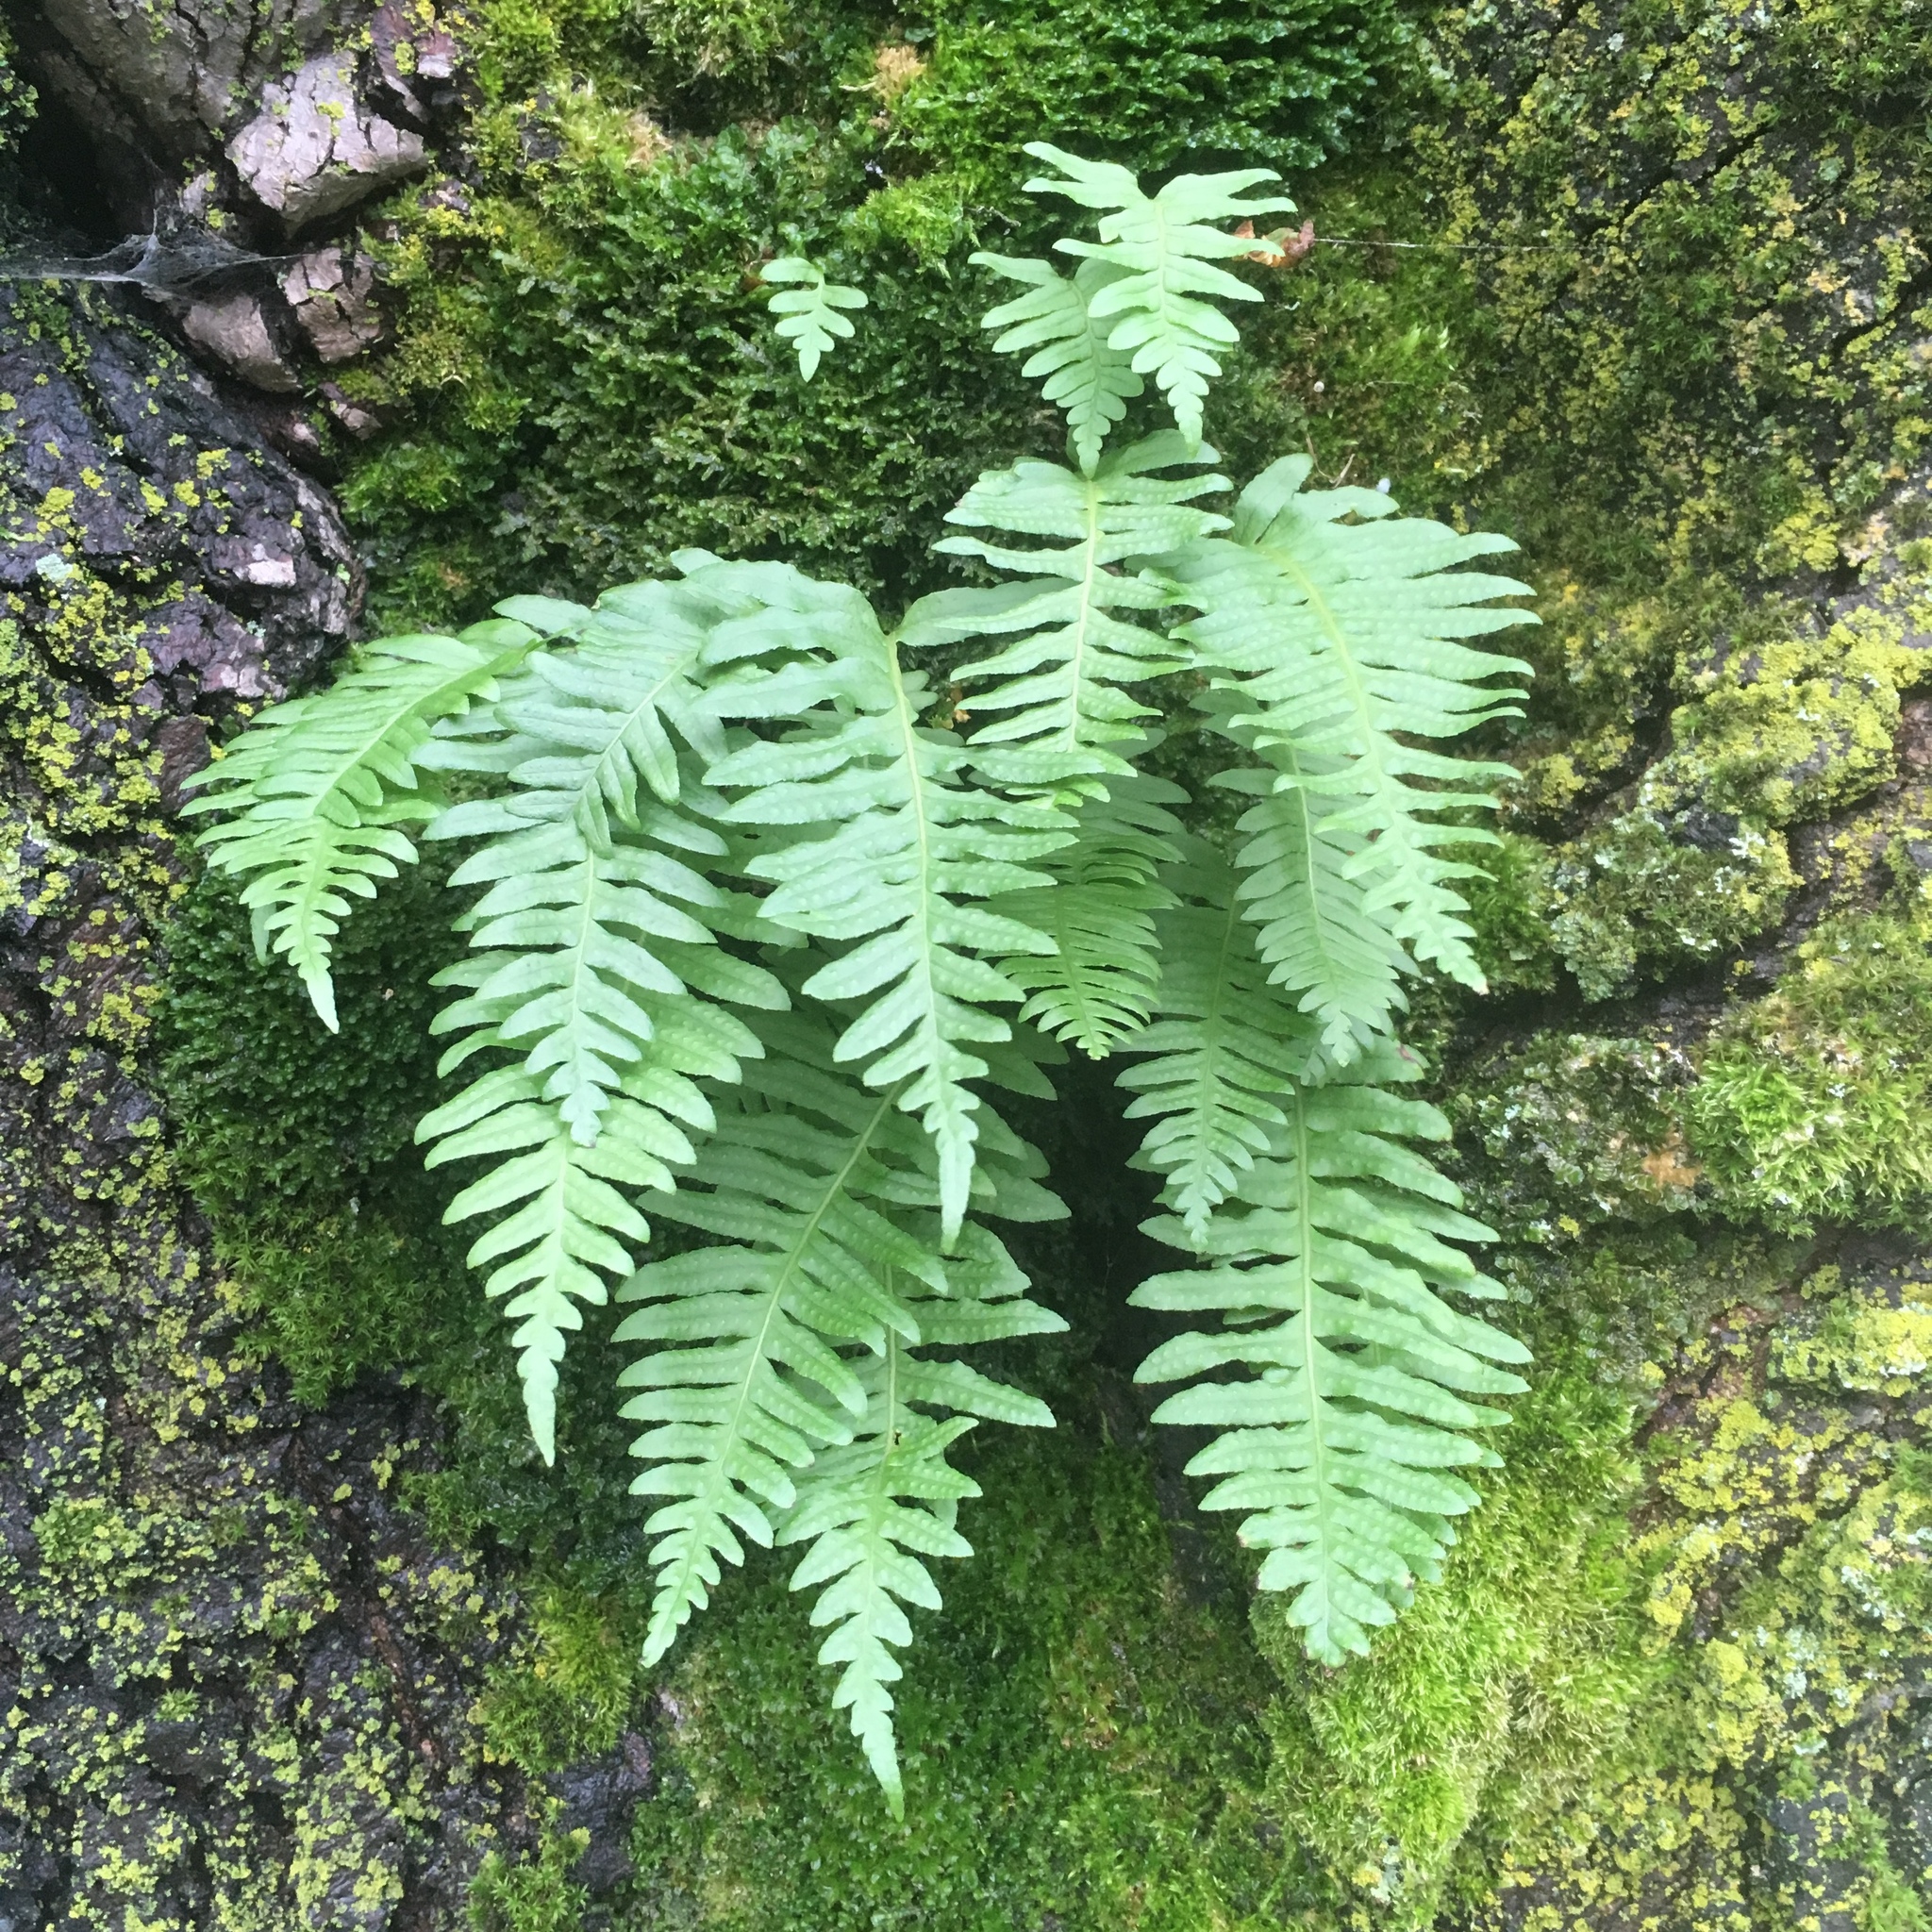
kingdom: Plantae
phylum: Tracheophyta
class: Polypodiopsida
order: Polypodiales
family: Polypodiaceae
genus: Polypodium
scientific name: Polypodium glycyrrhiza
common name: Licorice fern
